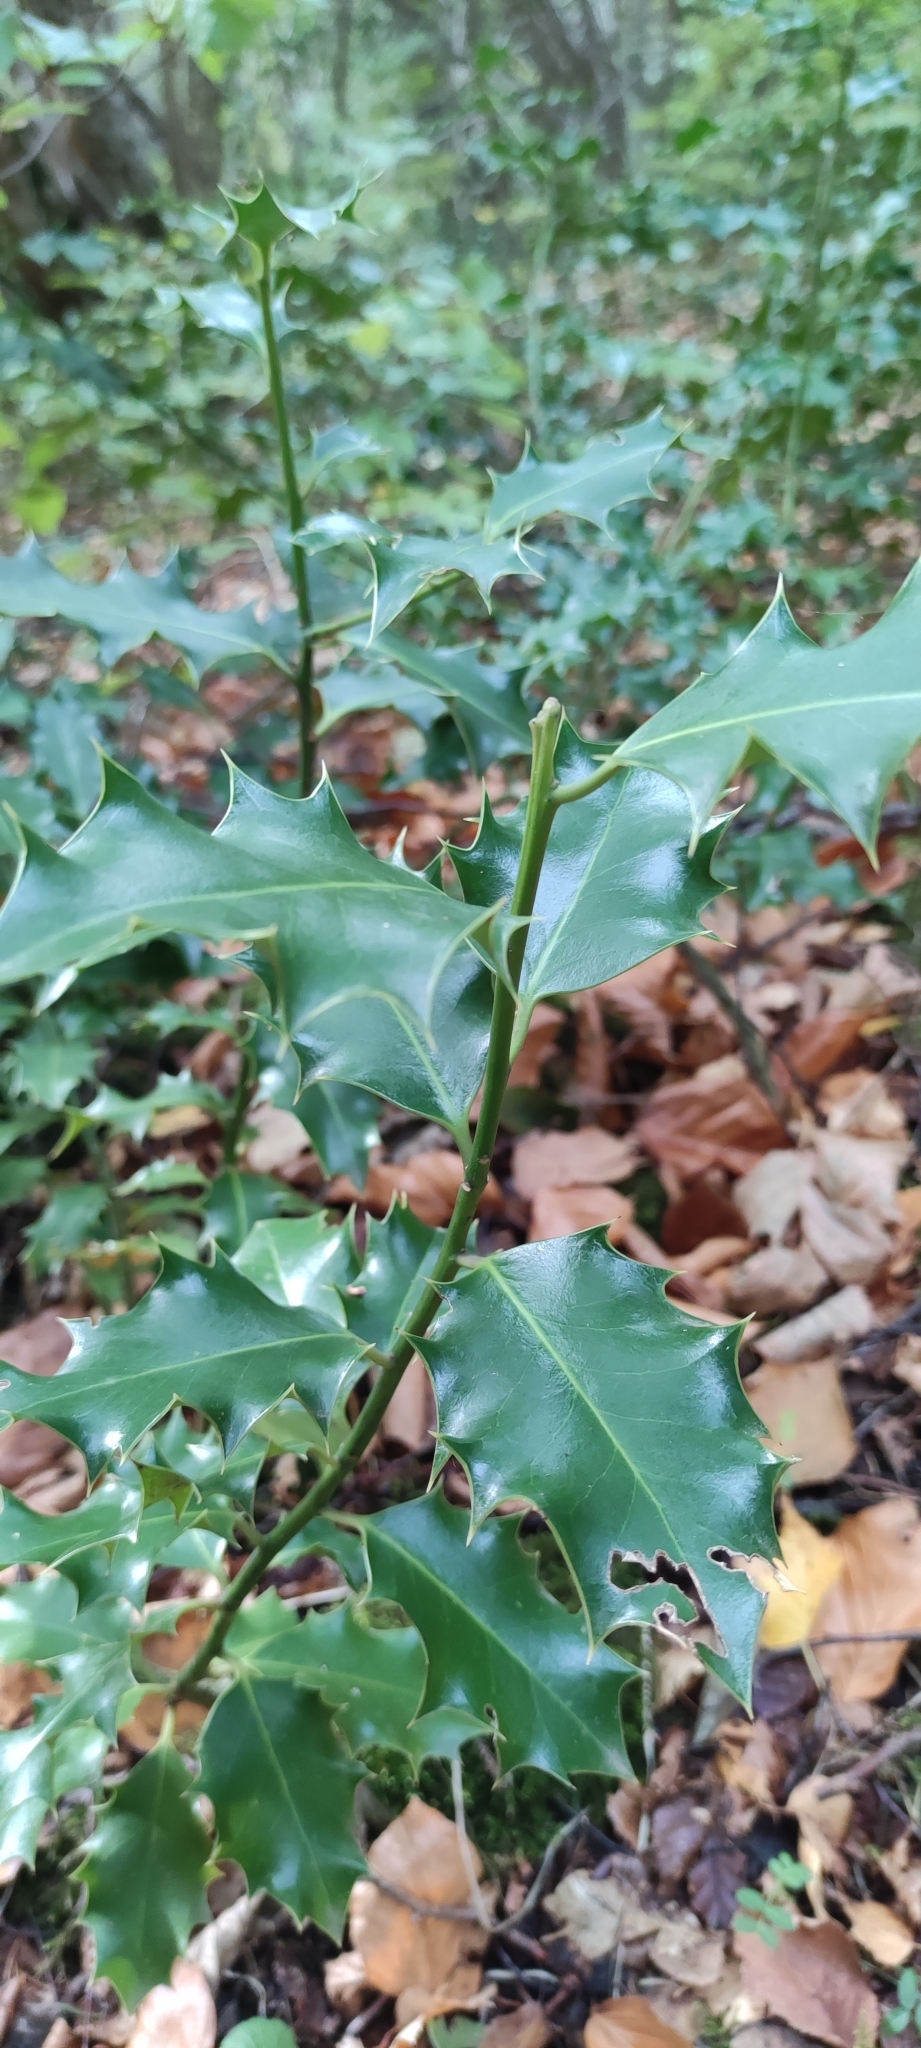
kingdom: Plantae
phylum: Tracheophyta
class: Magnoliopsida
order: Aquifoliales
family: Aquifoliaceae
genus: Ilex
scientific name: Ilex aquifolium
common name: English holly
